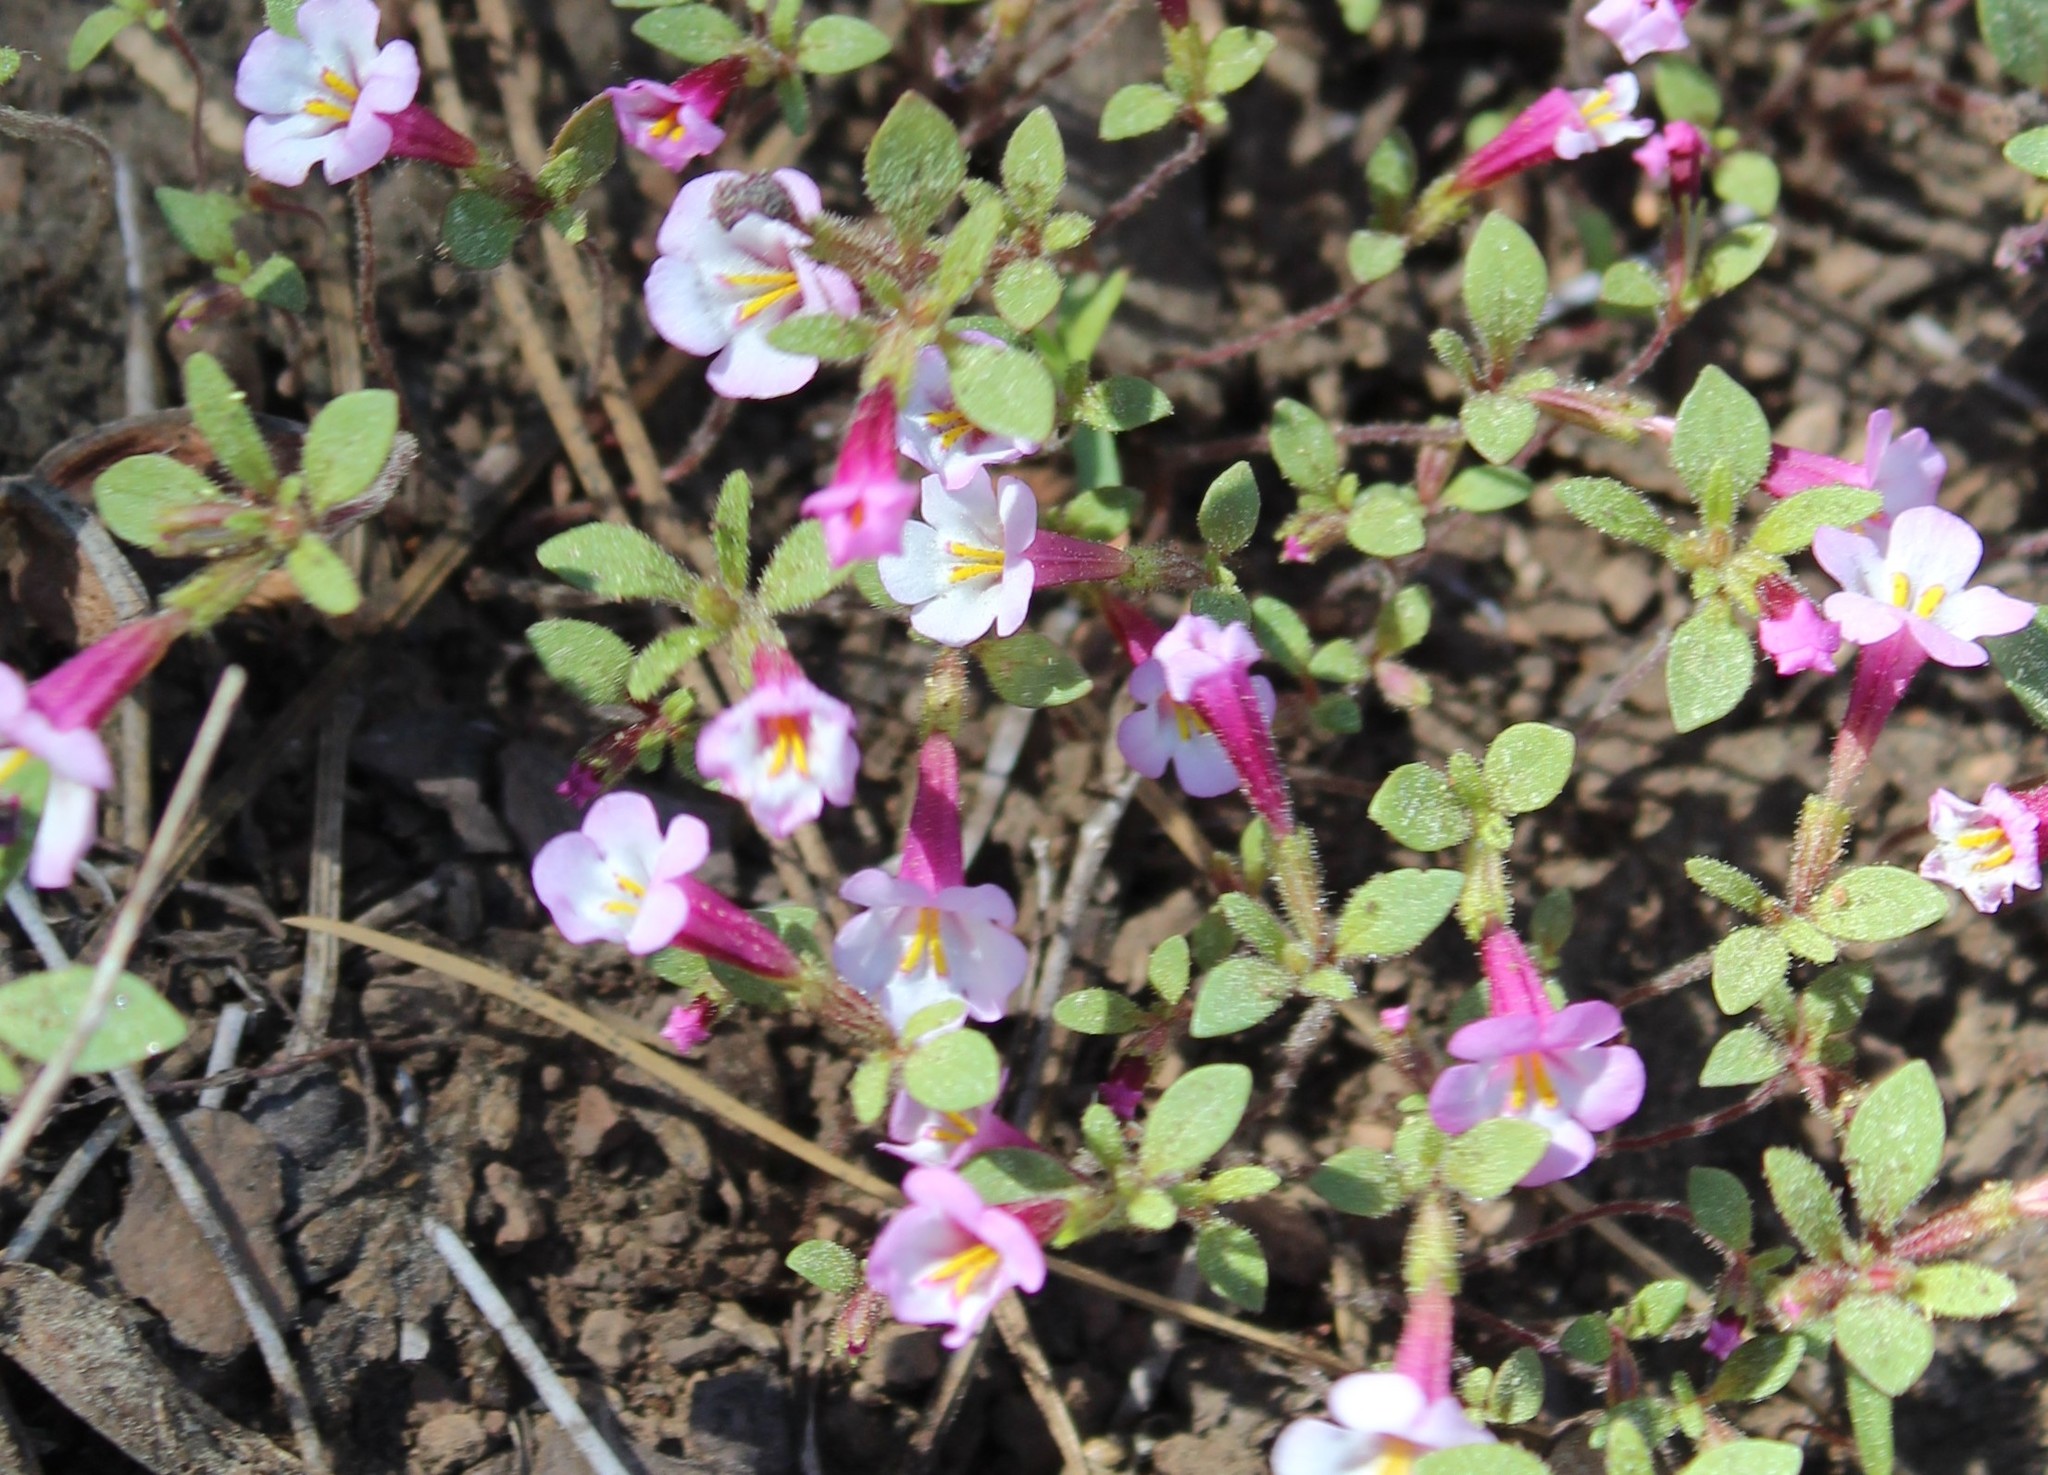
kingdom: Plantae
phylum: Tracheophyta
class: Magnoliopsida
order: Lamiales
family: Phrymaceae
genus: Diplacus
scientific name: Diplacus torreyi
